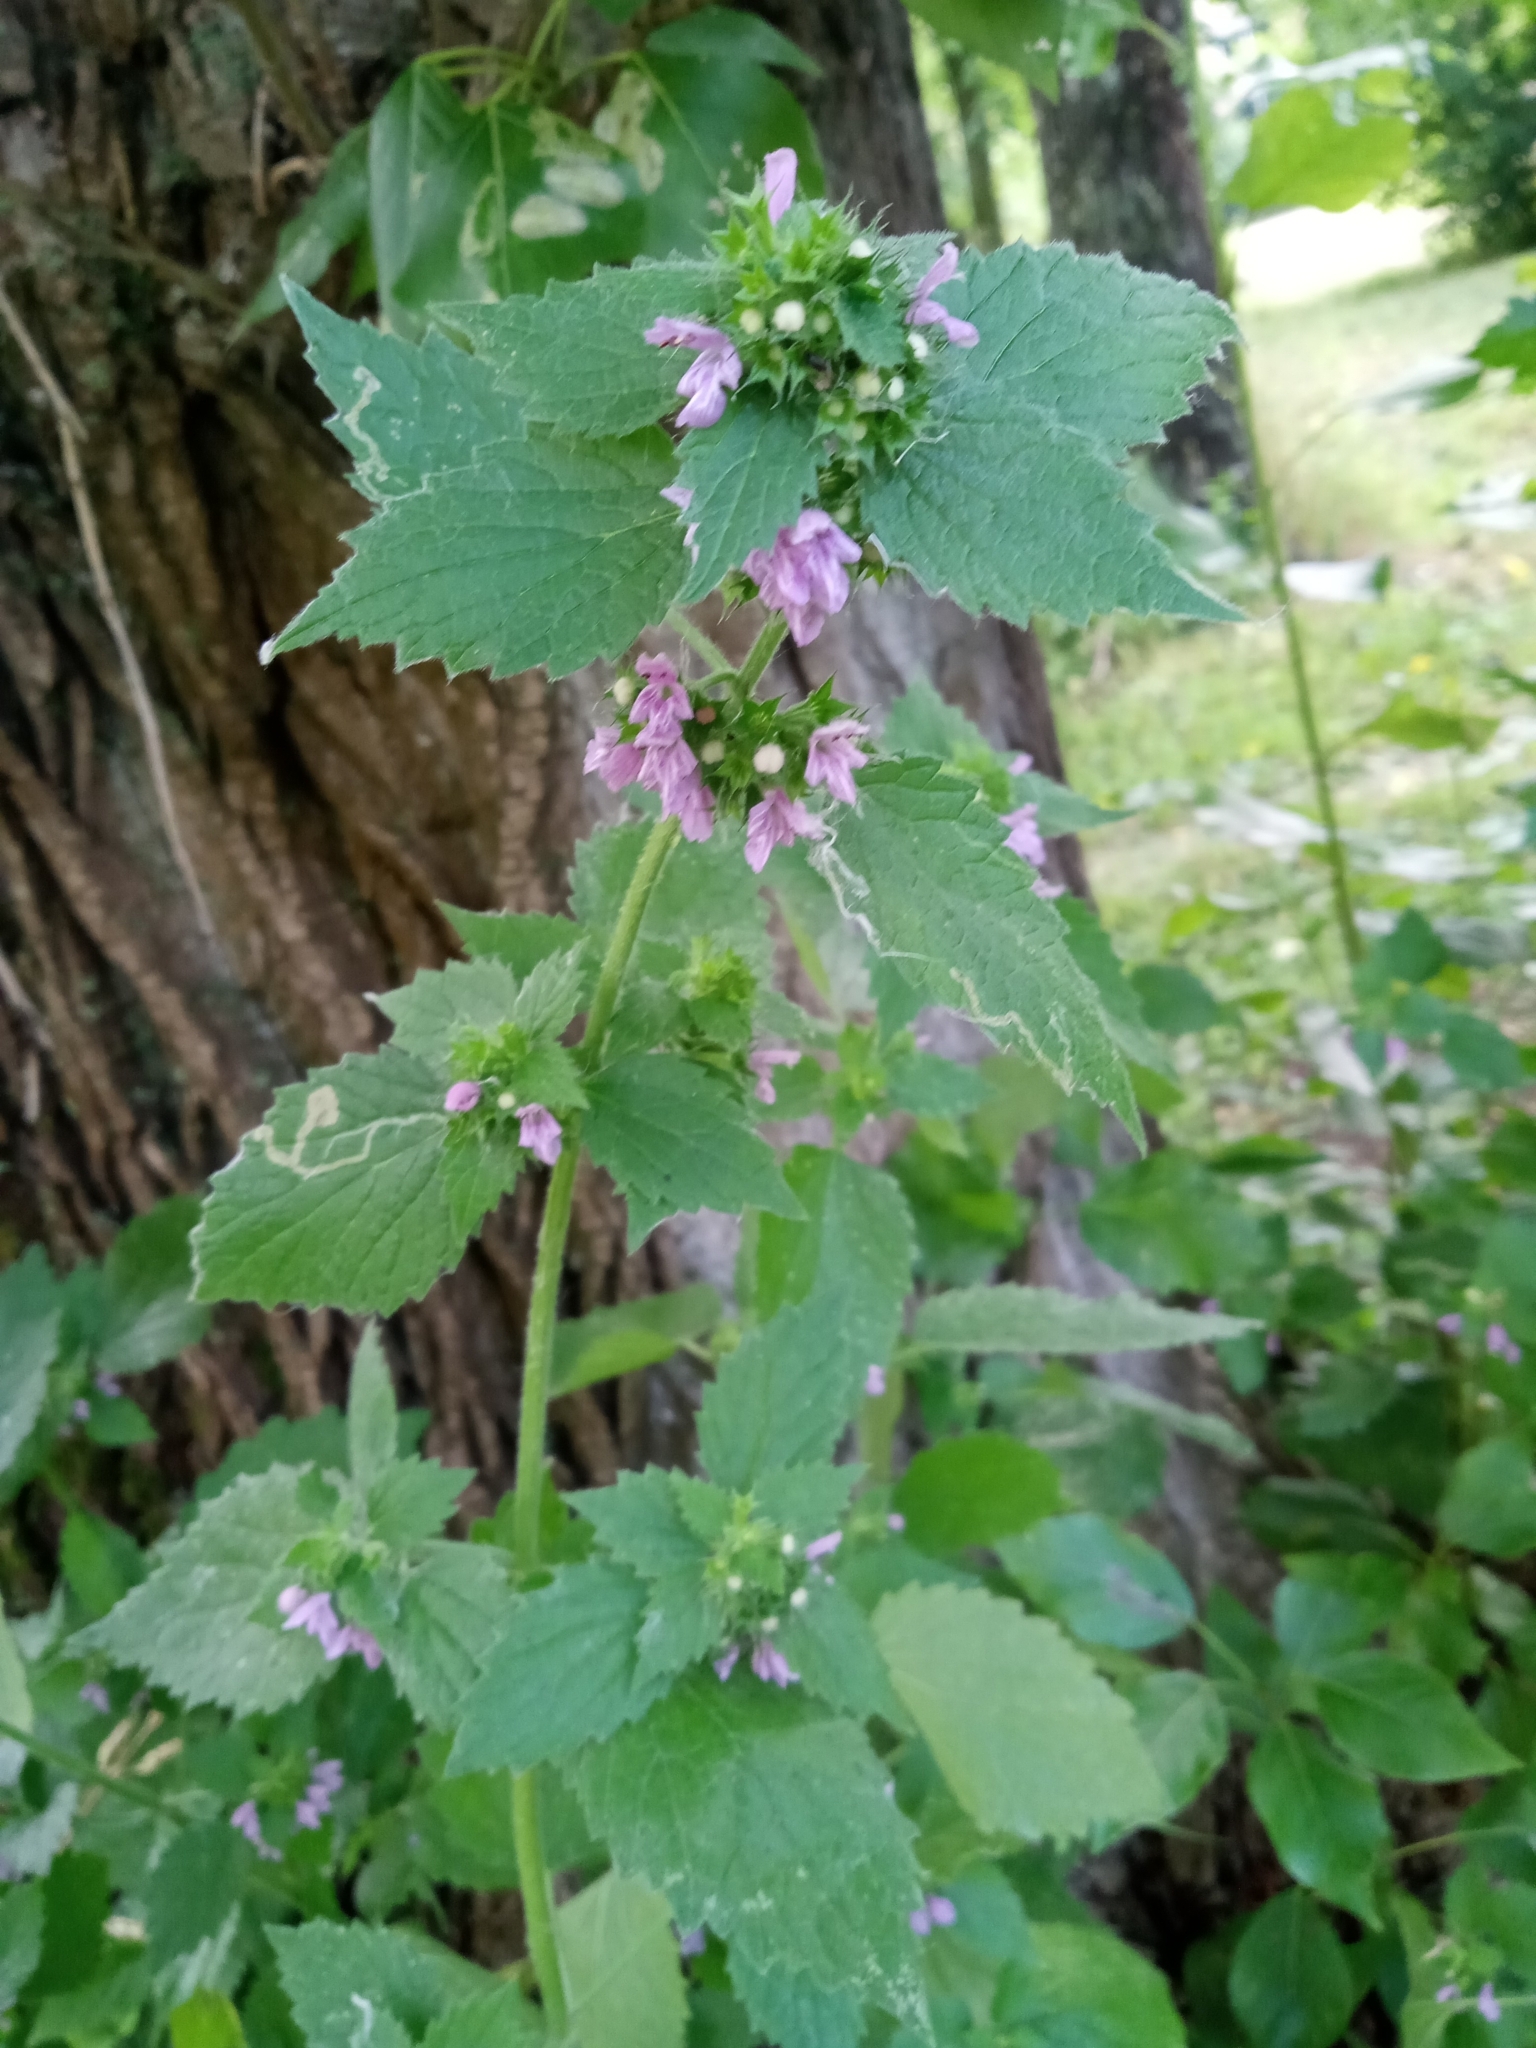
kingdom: Plantae
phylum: Tracheophyta
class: Magnoliopsida
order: Lamiales
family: Lamiaceae
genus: Ballota
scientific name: Ballota nigra
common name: Black horehound
